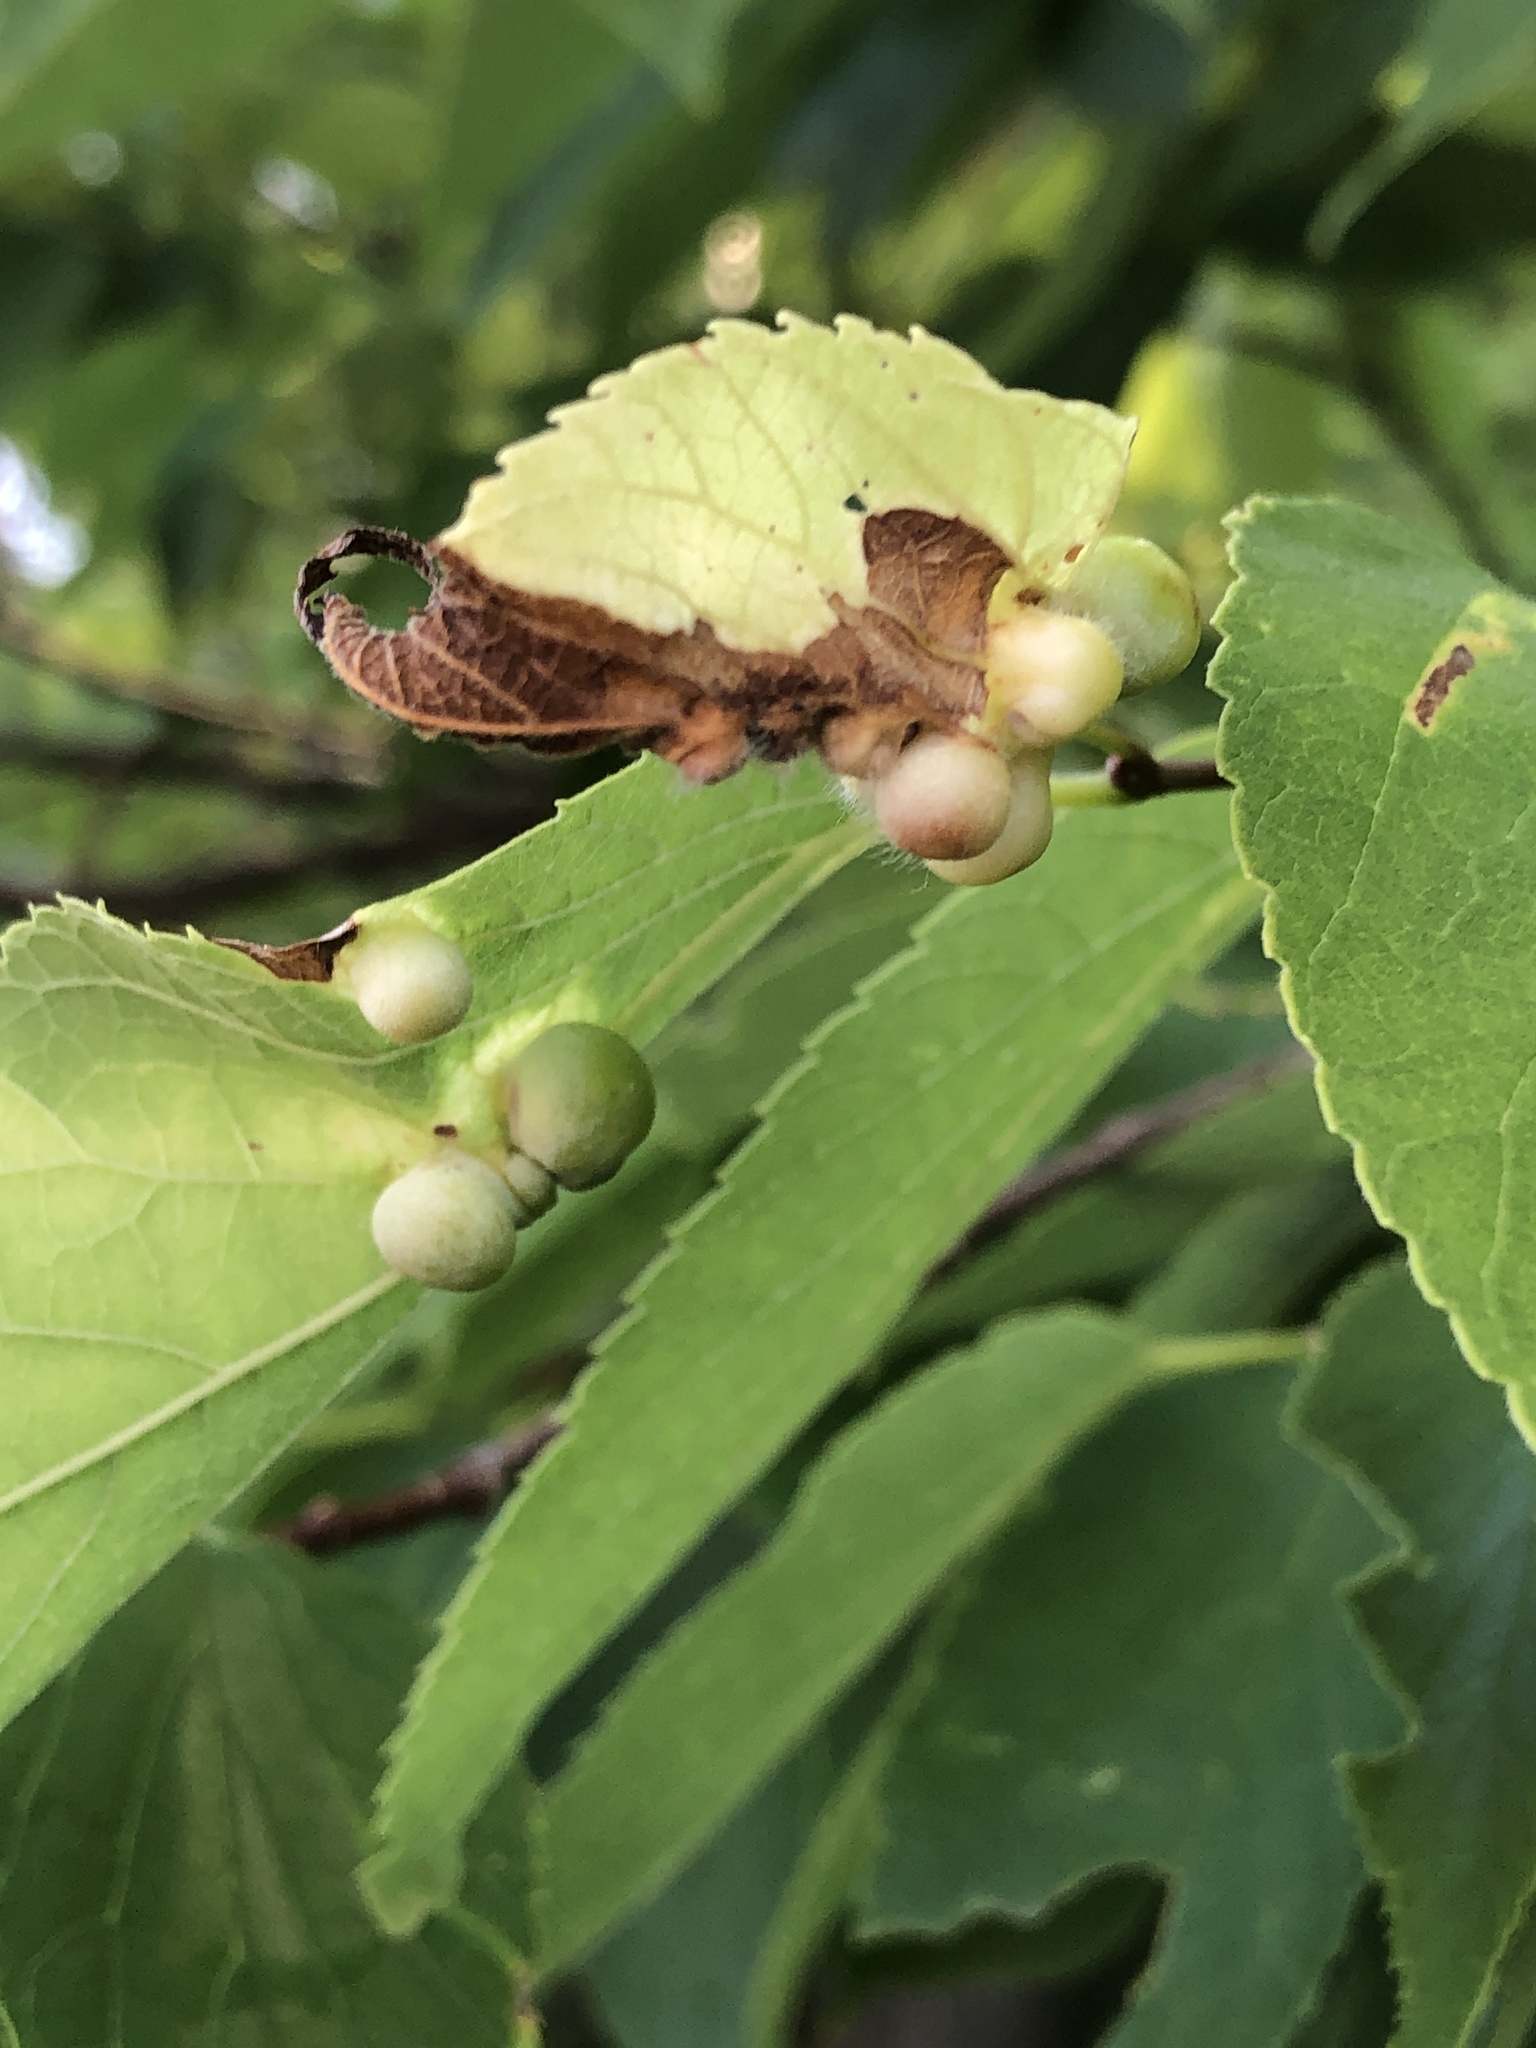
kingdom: Animalia
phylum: Arthropoda
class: Insecta
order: Hemiptera
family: Aphalaridae
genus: Pachypsylla
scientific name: Pachypsylla celtidismamma
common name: Hackberry nipplegall psyllid
